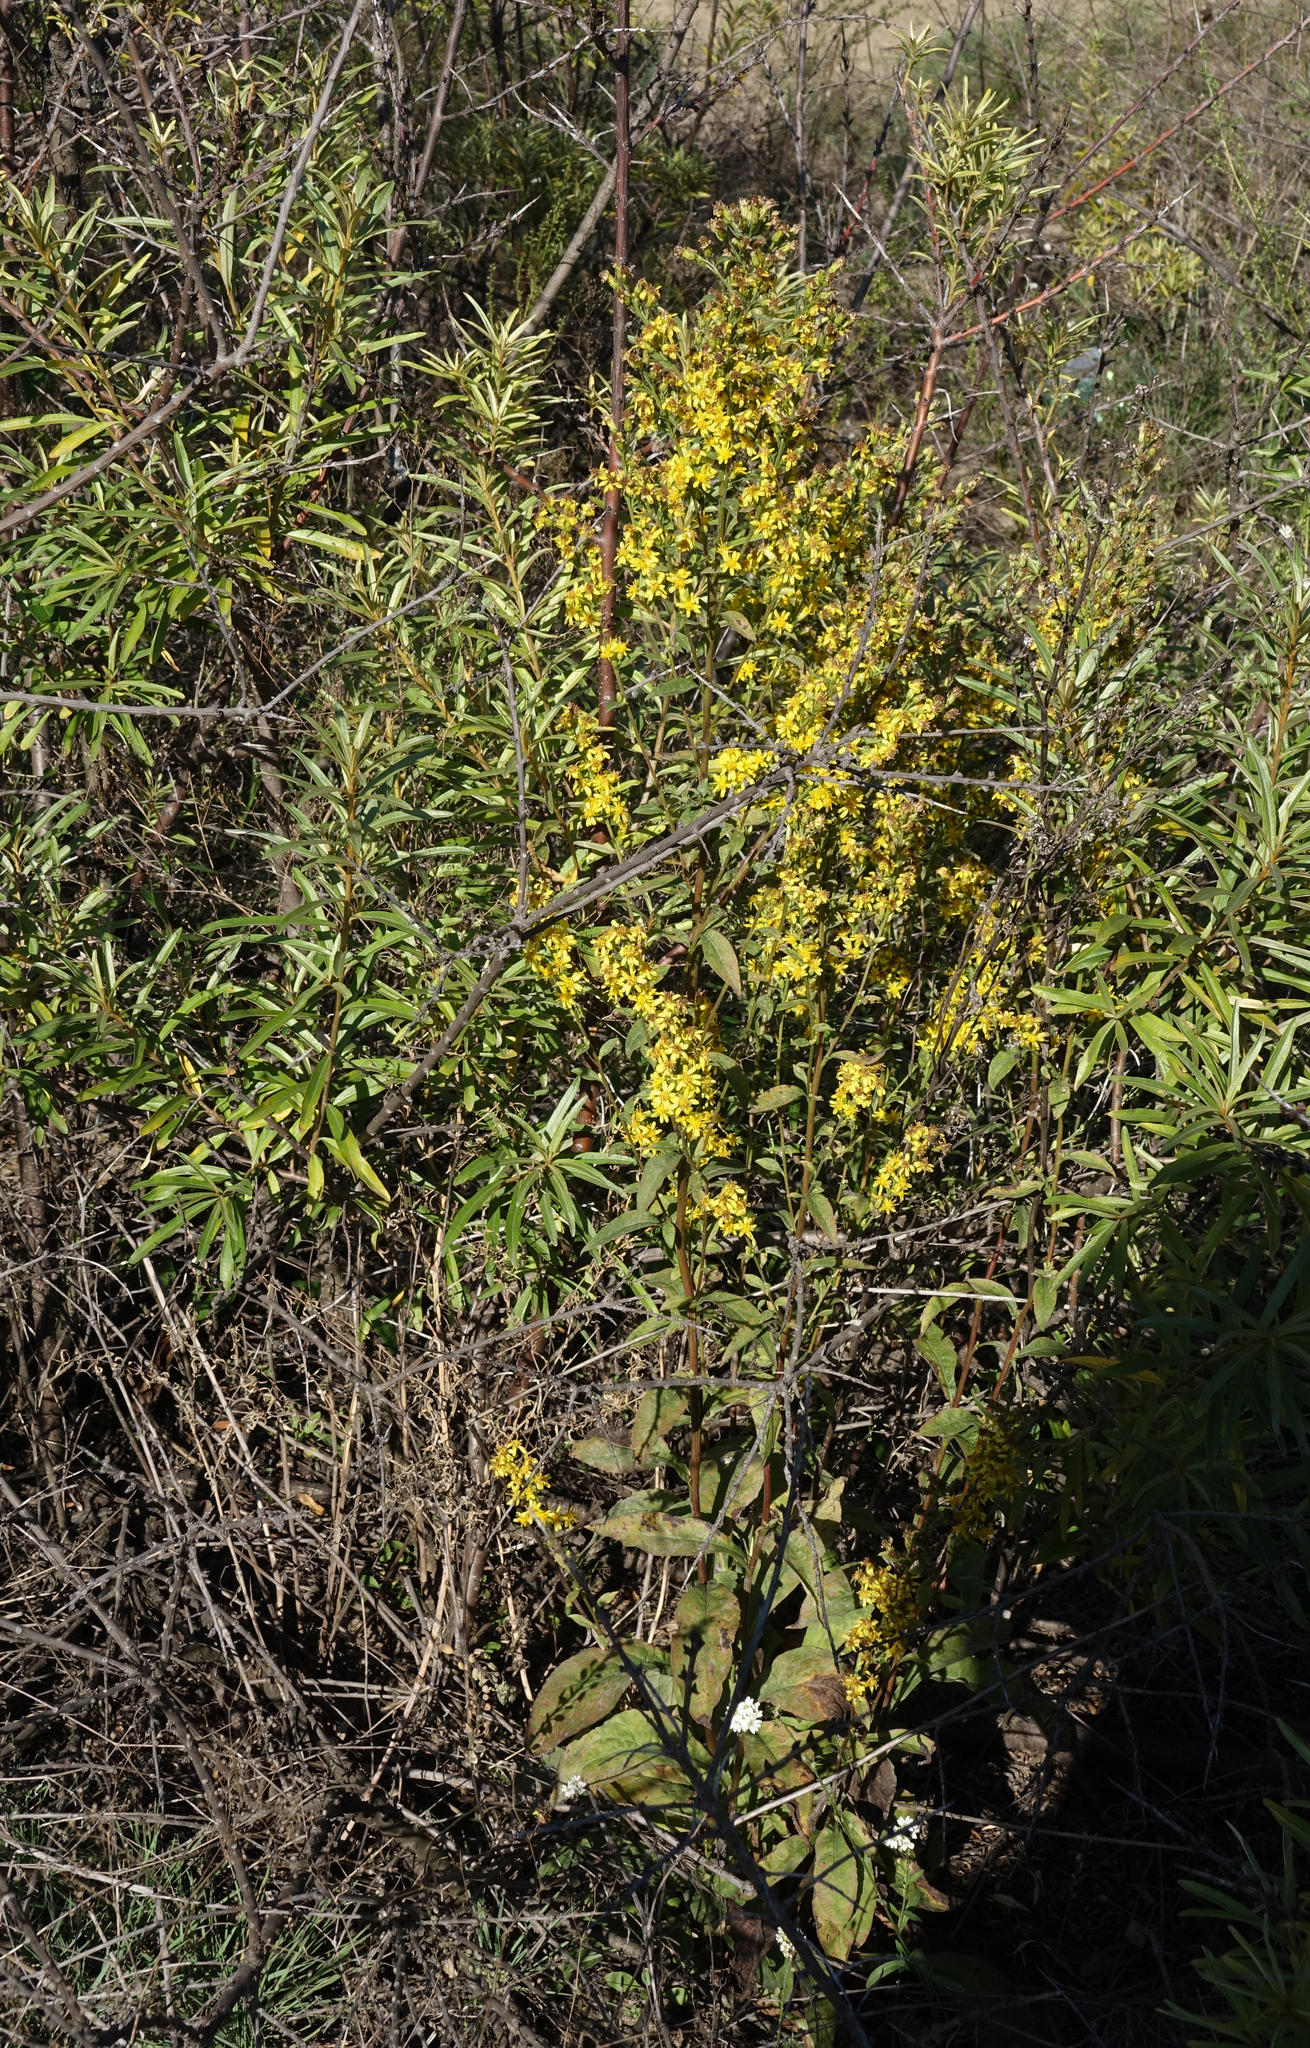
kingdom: Plantae
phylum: Tracheophyta
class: Magnoliopsida
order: Asterales
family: Asteraceae
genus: Solidago
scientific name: Solidago virgaurea
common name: Goldenrod
